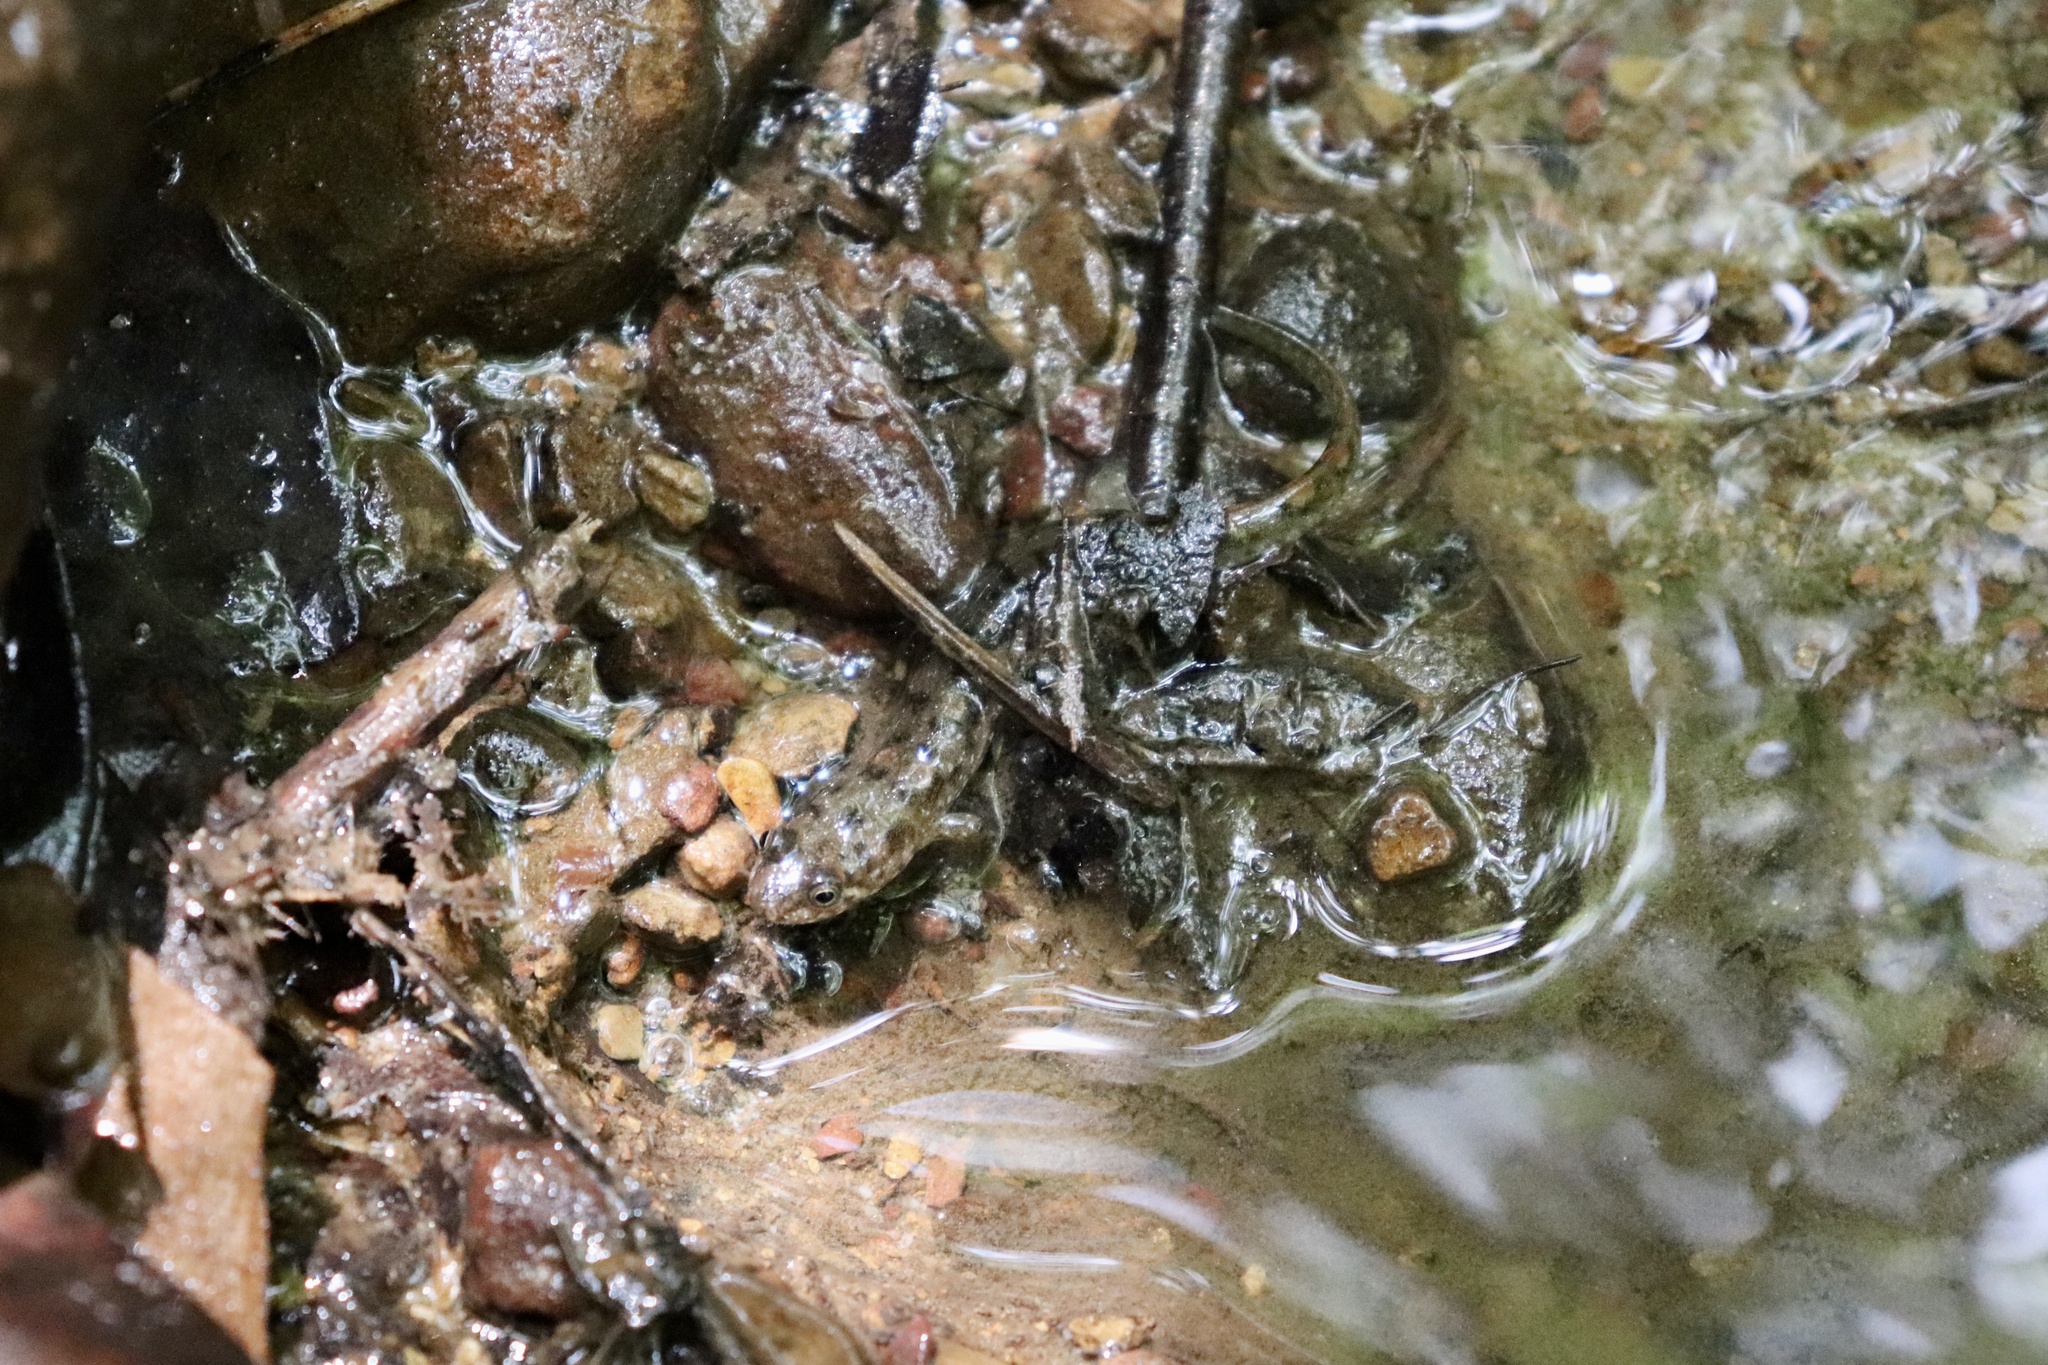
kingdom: Animalia
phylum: Chordata
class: Amphibia
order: Caudata
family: Plethodontidae
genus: Desmognathus
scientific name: Desmognathus monticola
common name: Seal salamander
